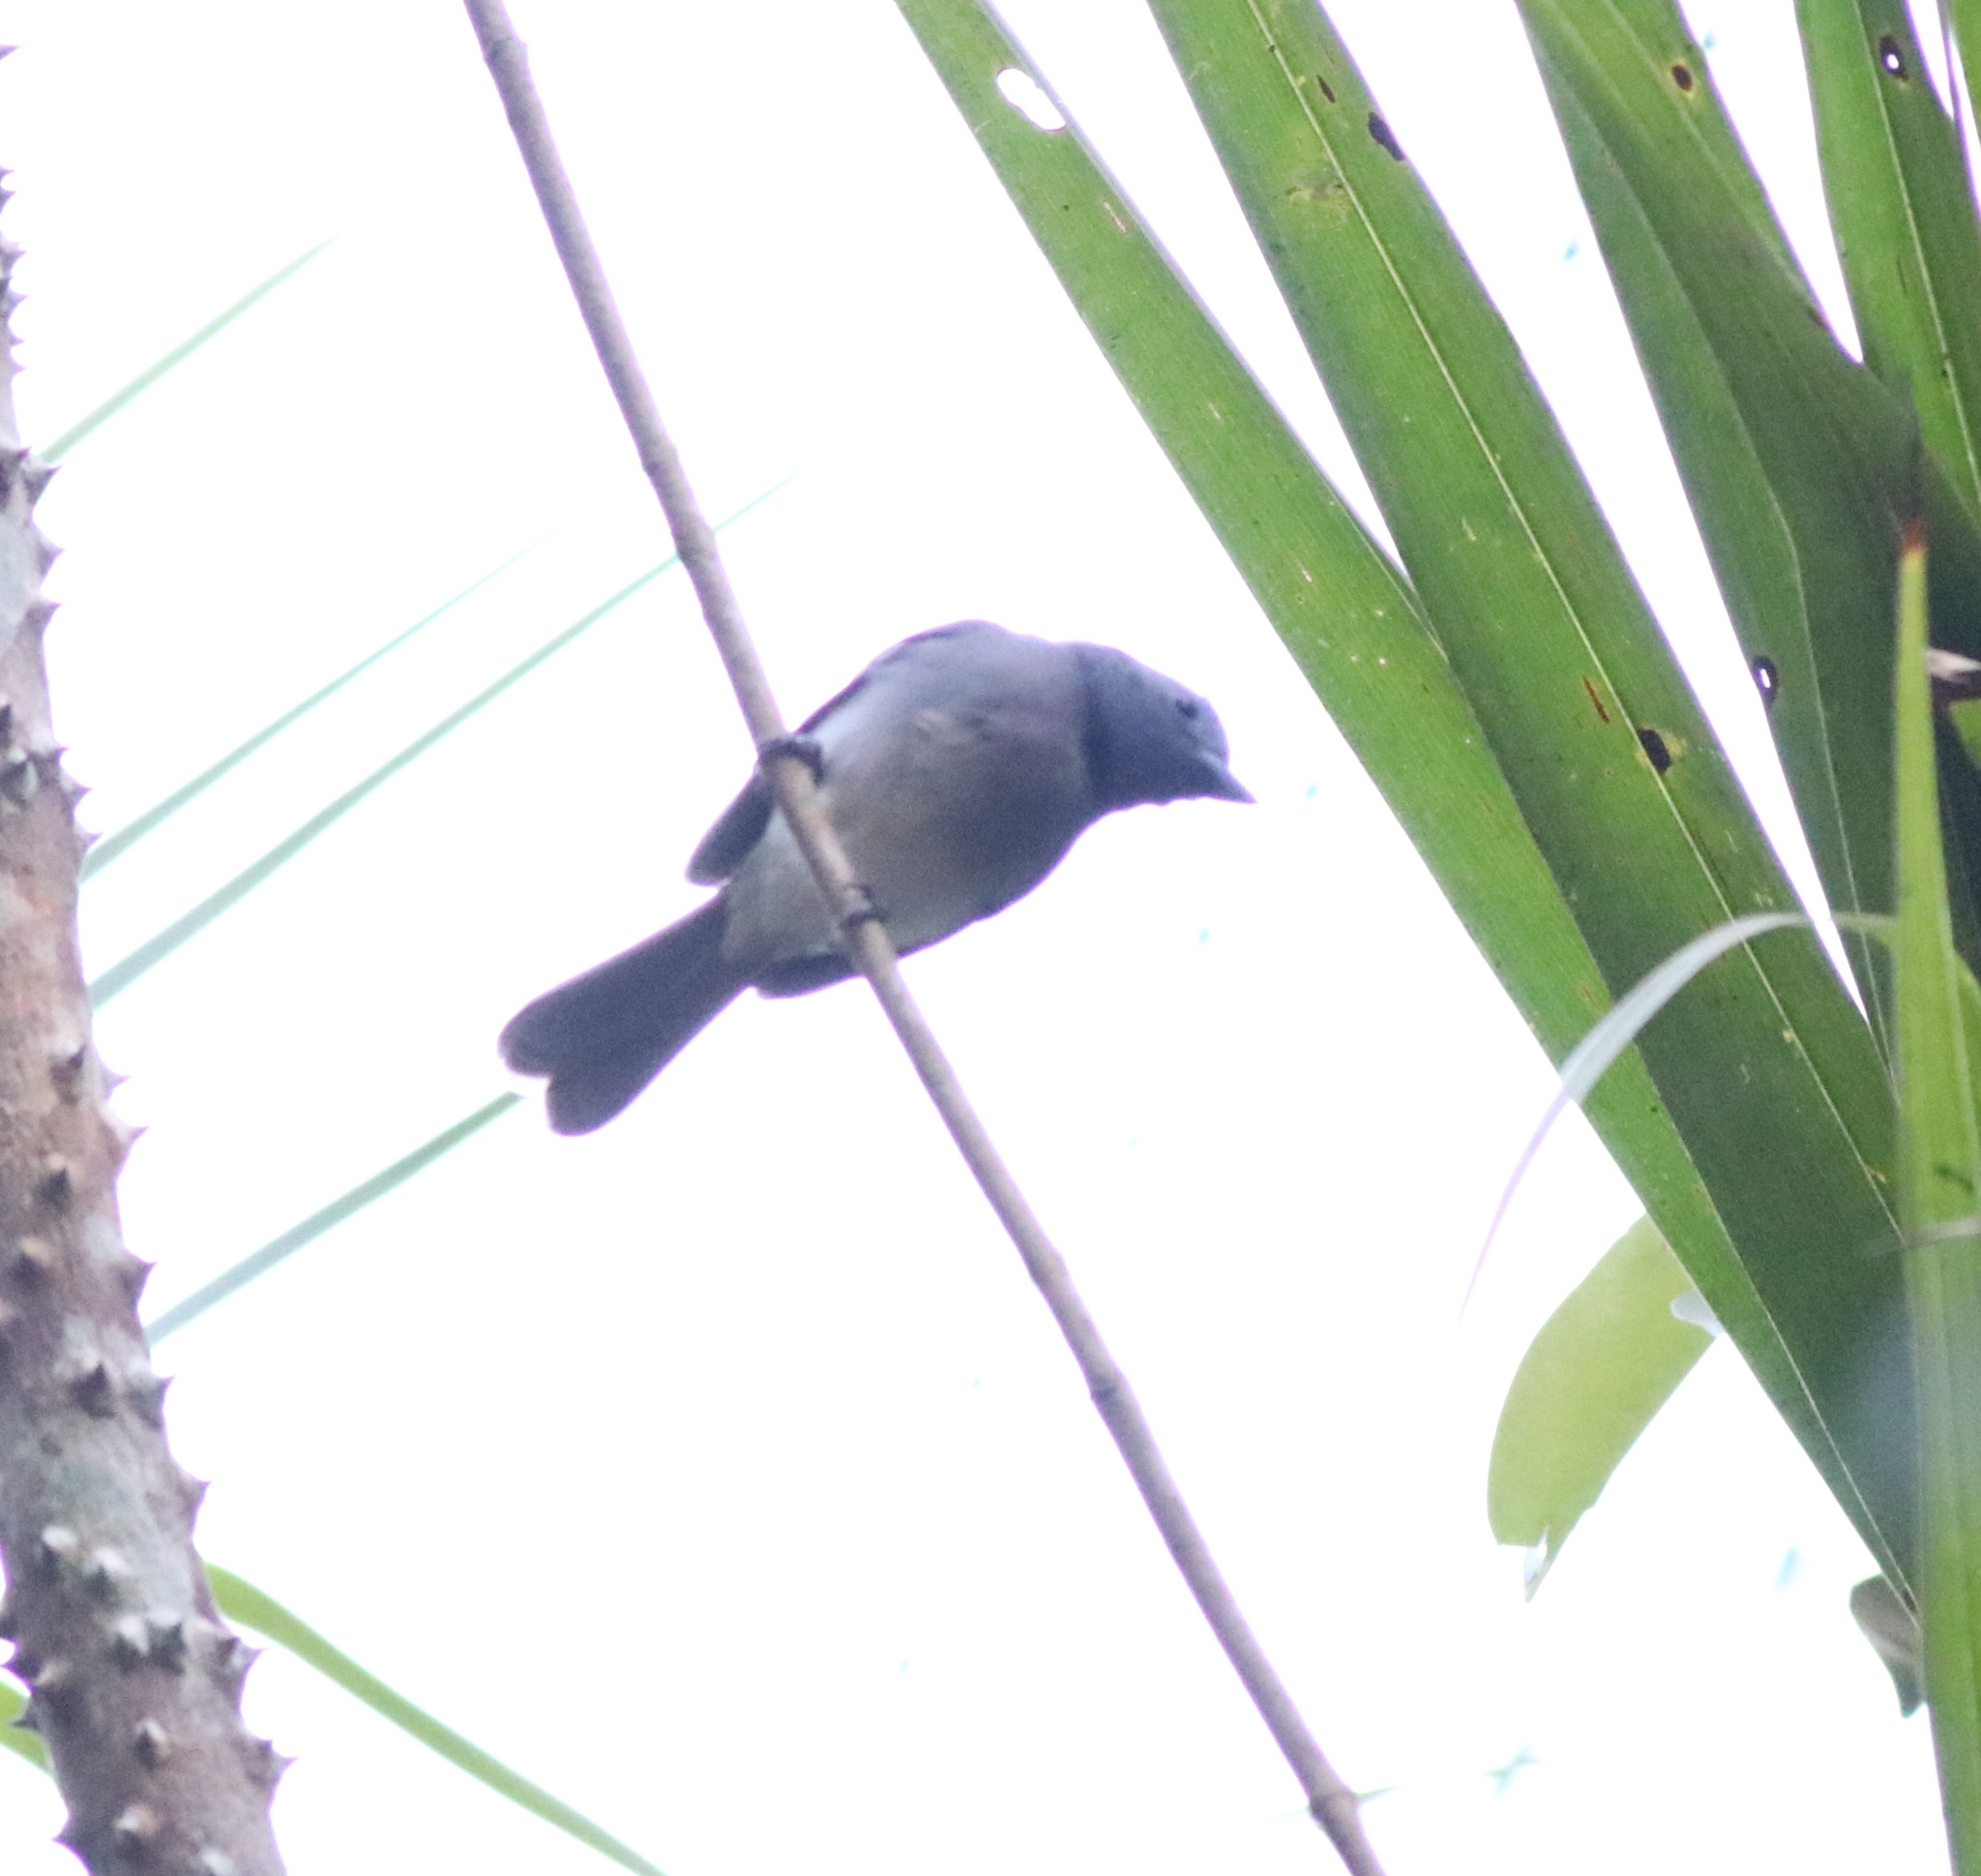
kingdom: Animalia
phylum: Chordata
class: Aves
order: Passeriformes
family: Monarchidae
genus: Hypothymis
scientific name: Hypothymis azurea
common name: Black-naped monarch
